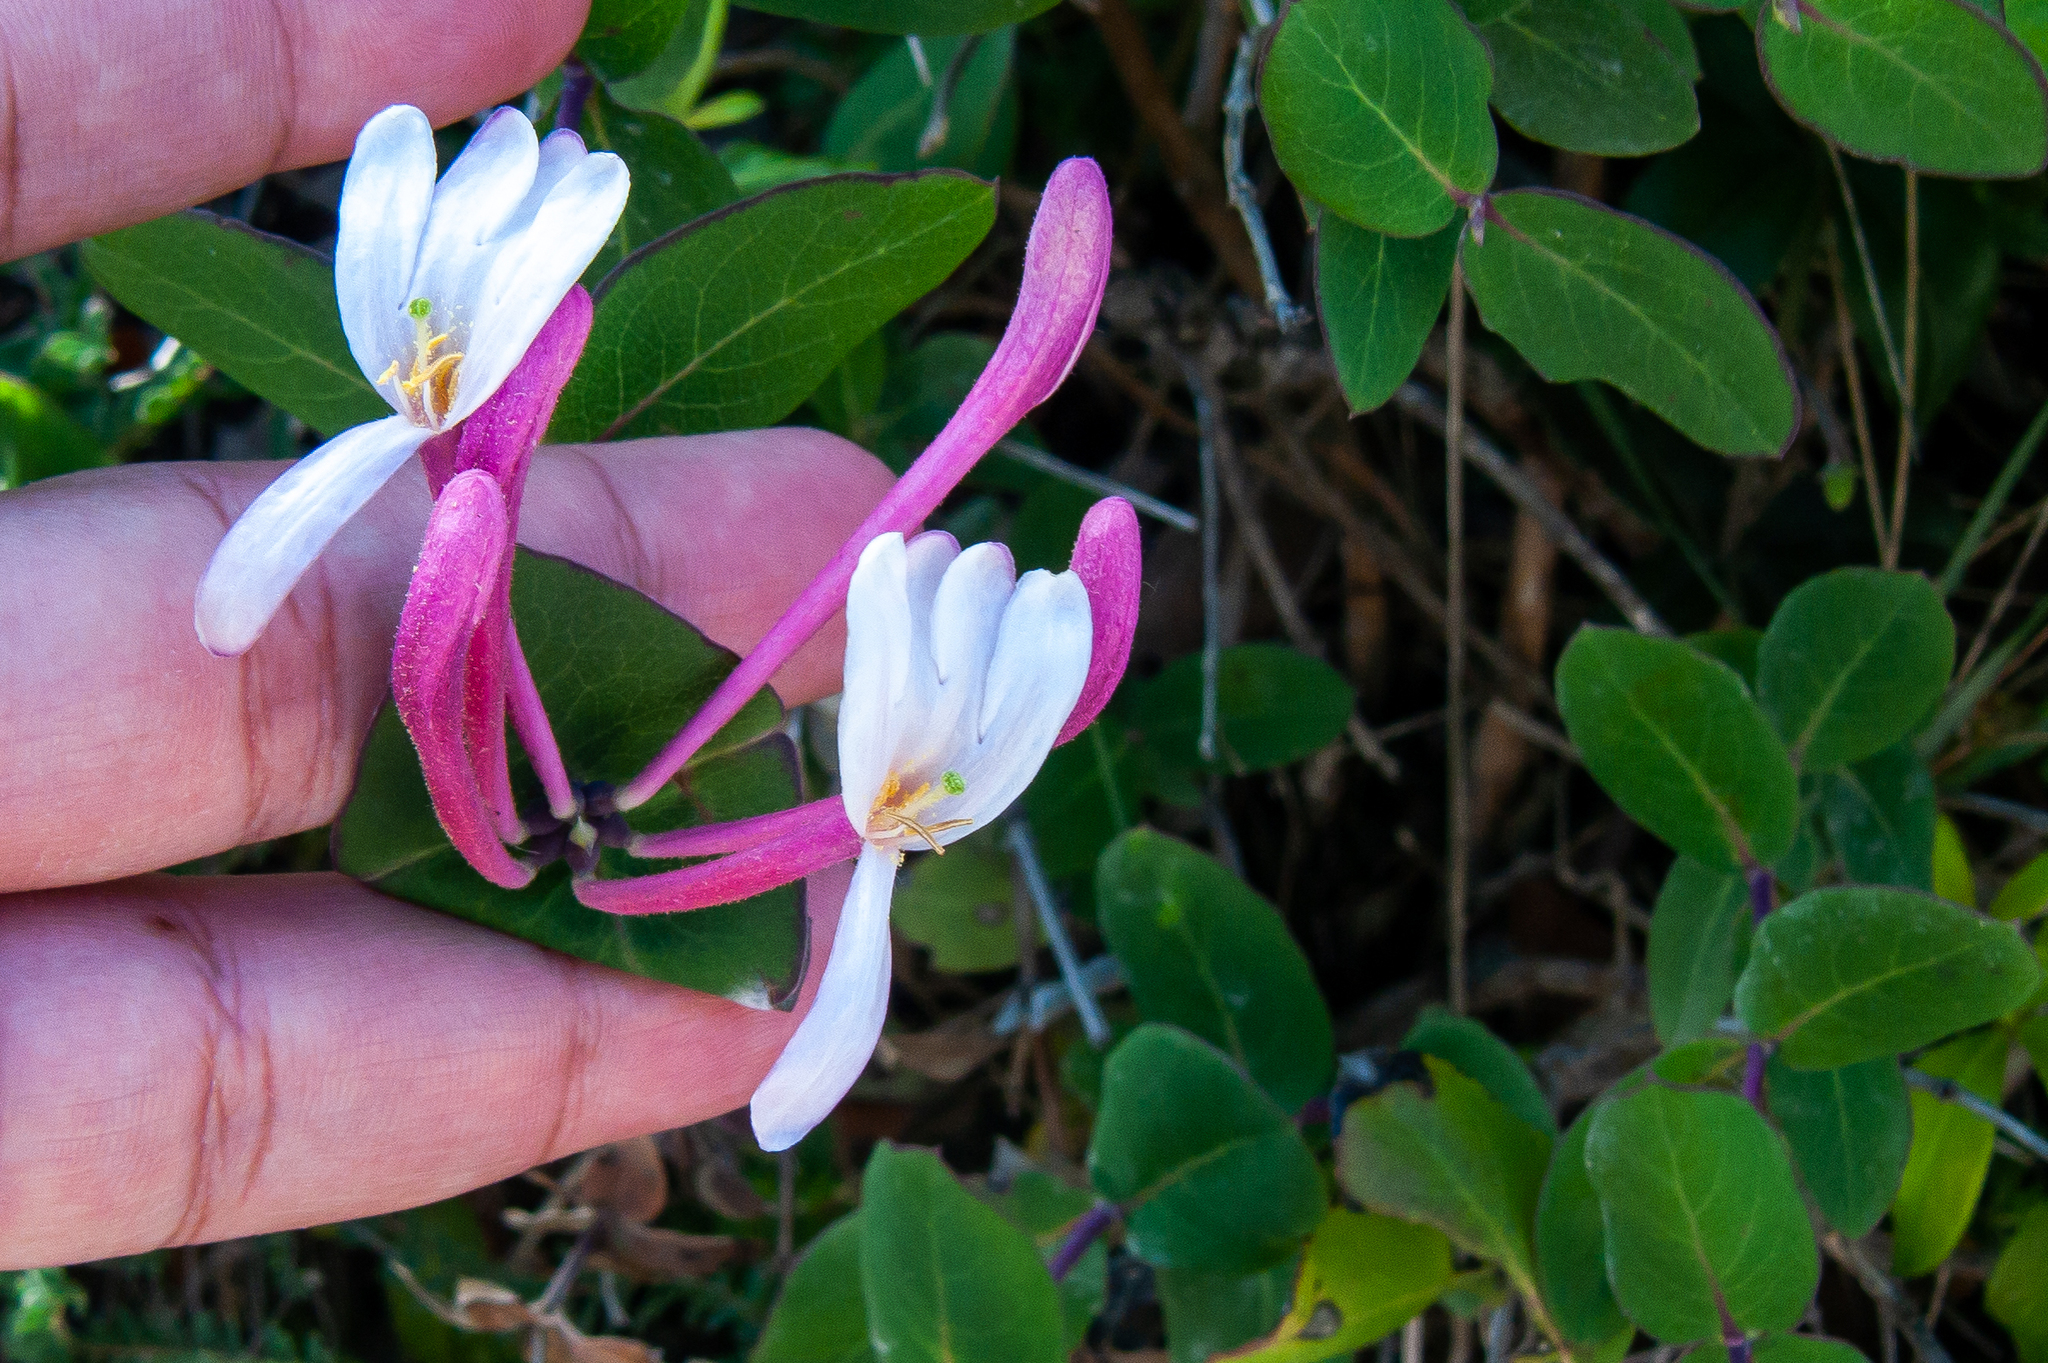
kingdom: Plantae
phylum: Tracheophyta
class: Magnoliopsida
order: Dipsacales
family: Caprifoliaceae
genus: Lonicera
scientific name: Lonicera implexa
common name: Minorca honeysuckle
